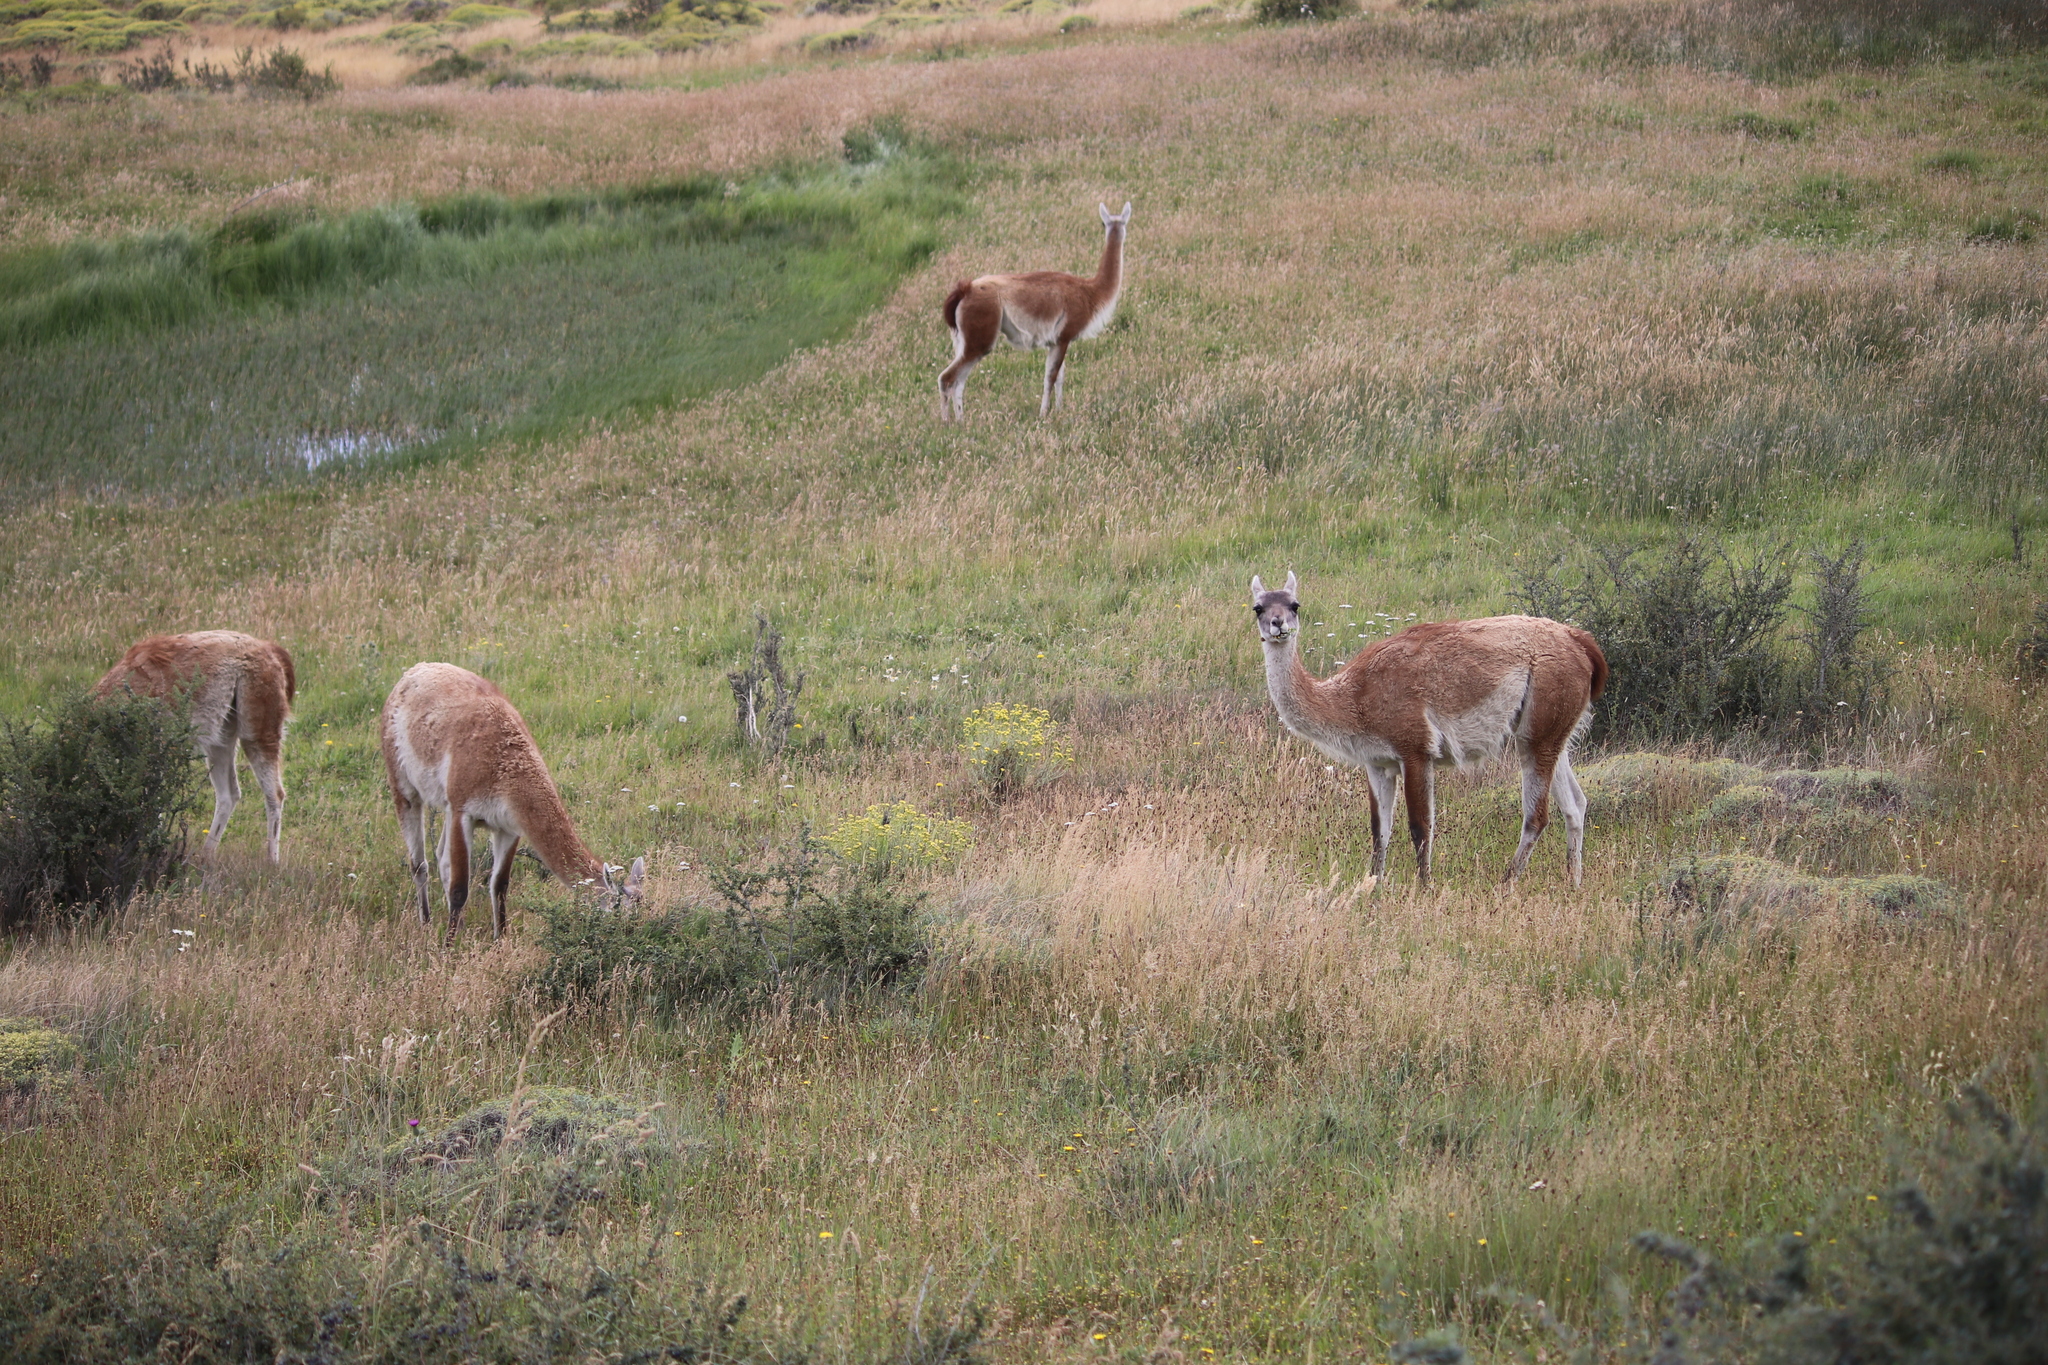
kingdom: Animalia
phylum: Chordata
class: Mammalia
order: Artiodactyla
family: Camelidae
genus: Lama
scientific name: Lama glama
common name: Llama
